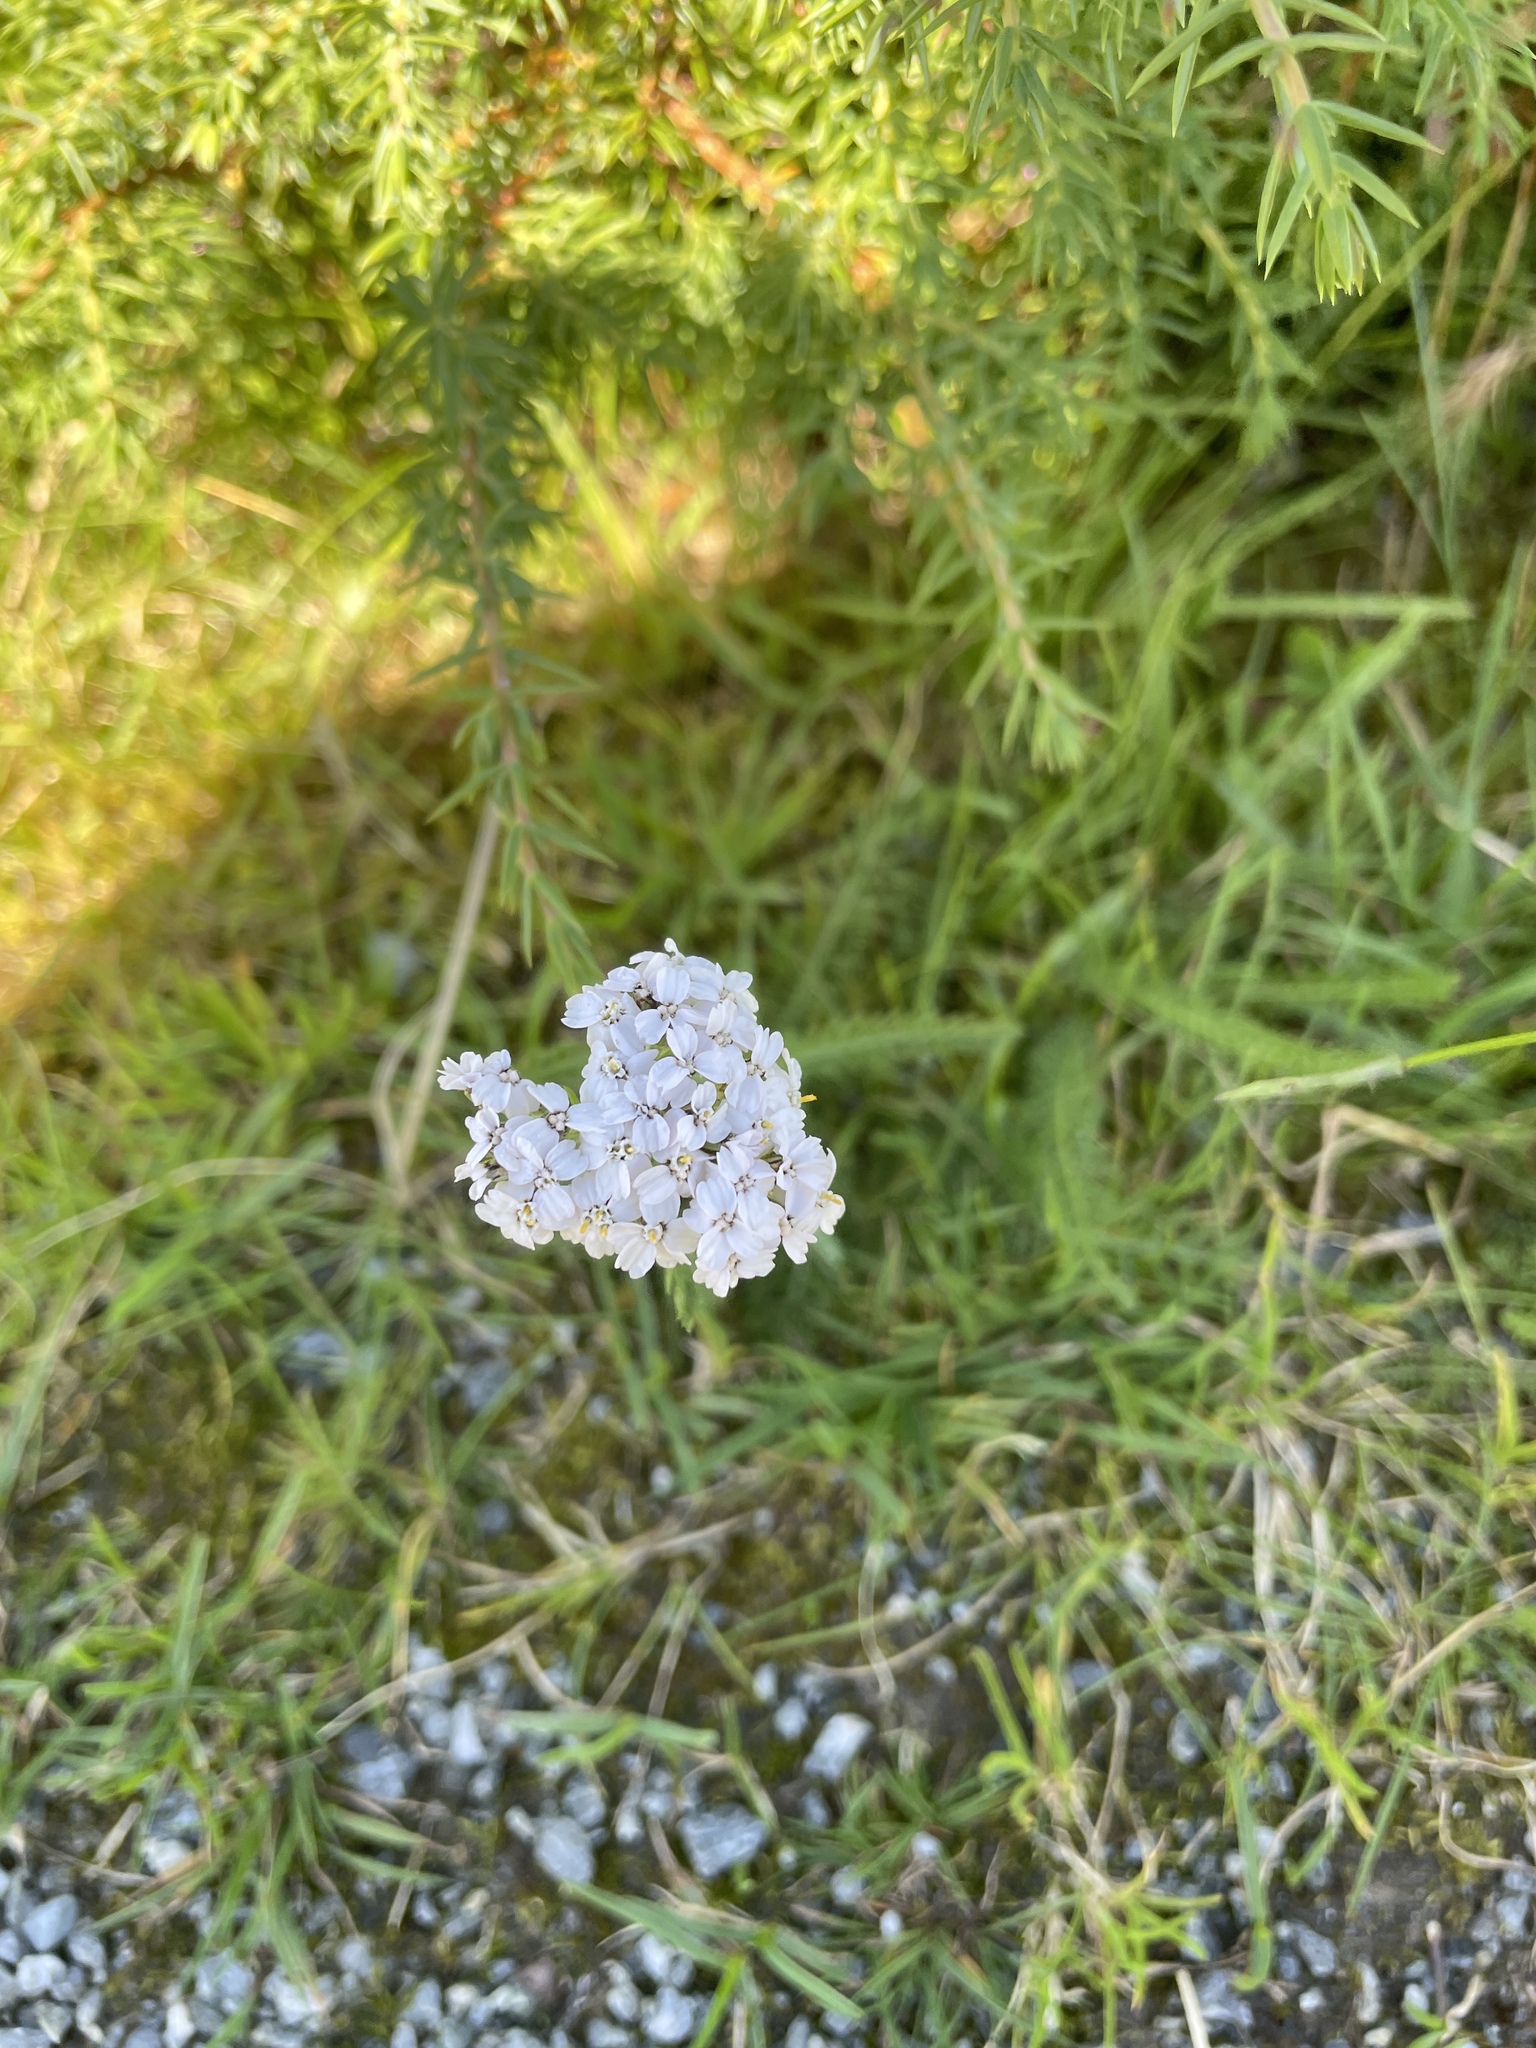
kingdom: Plantae
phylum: Tracheophyta
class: Magnoliopsida
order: Asterales
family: Asteraceae
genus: Achillea
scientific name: Achillea millefolium
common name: Yarrow
